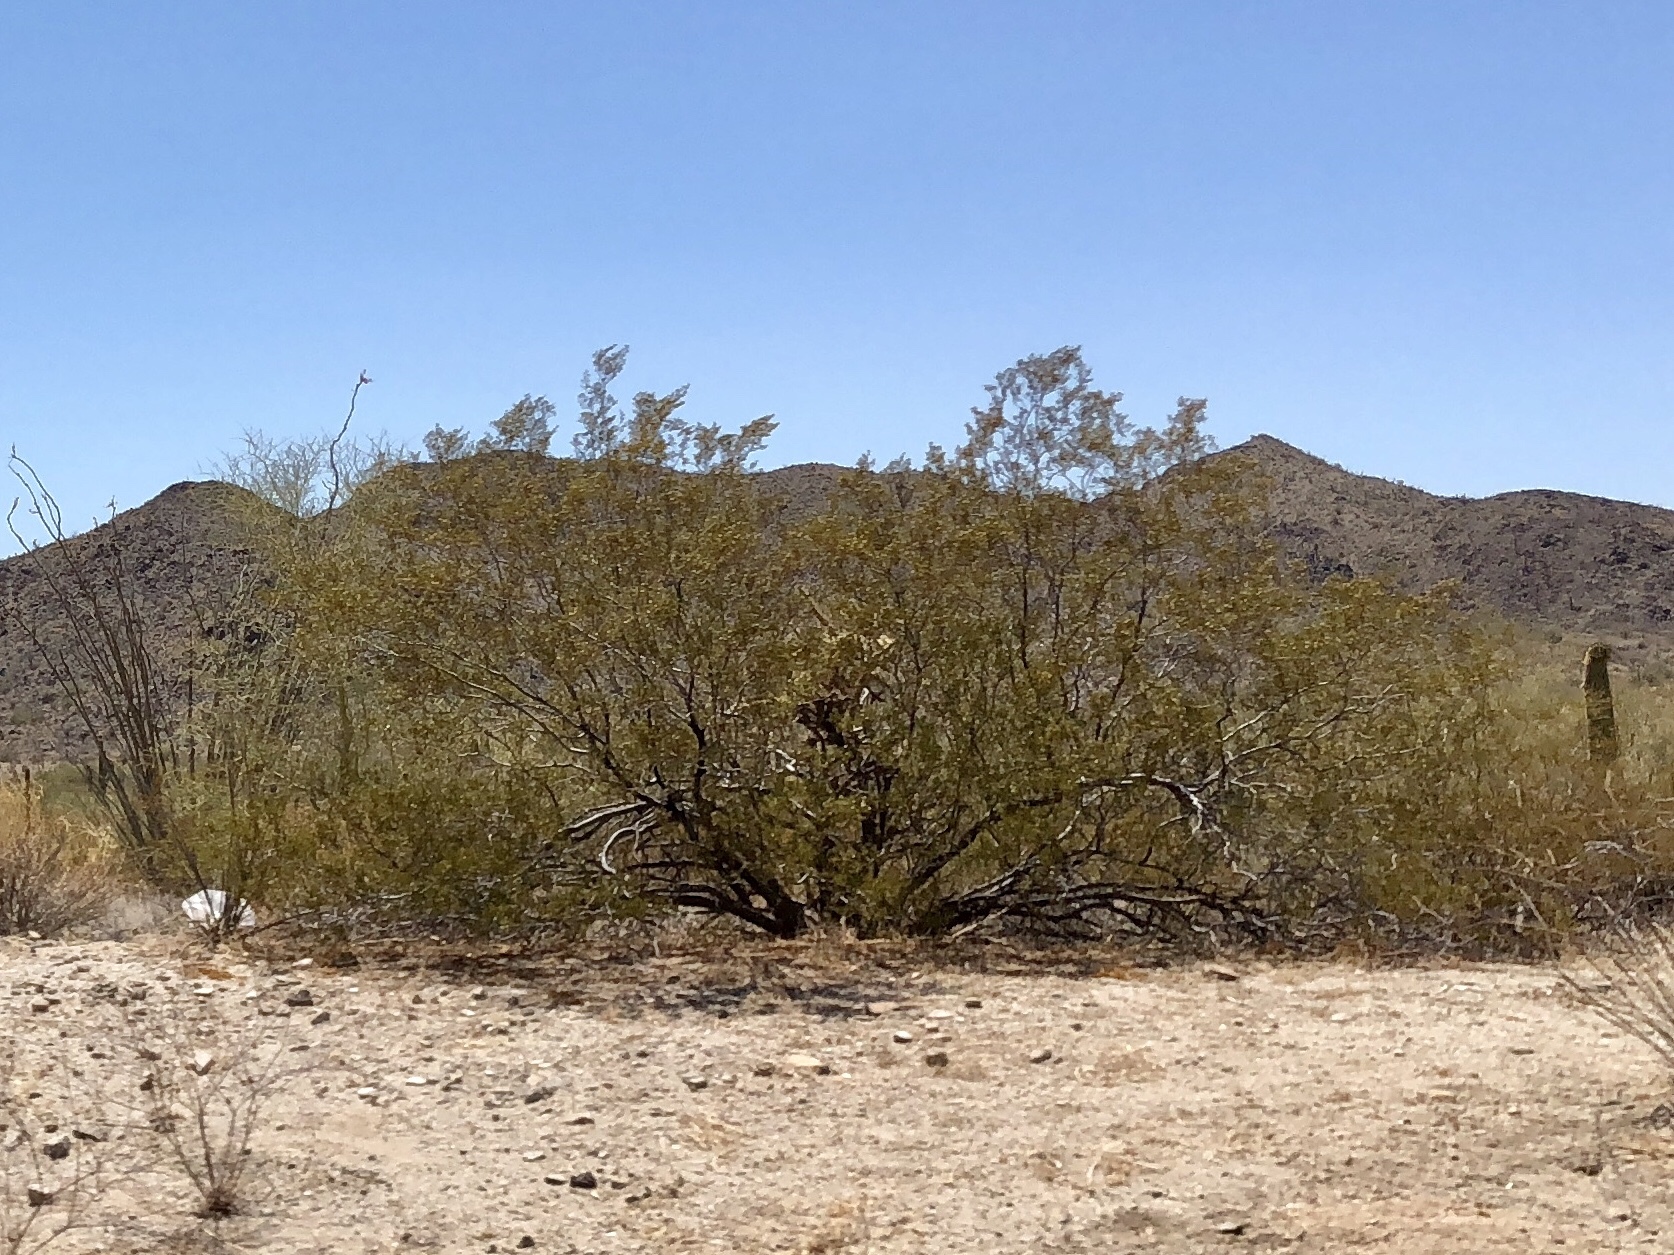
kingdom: Plantae
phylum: Tracheophyta
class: Magnoliopsida
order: Zygophyllales
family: Zygophyllaceae
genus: Larrea
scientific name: Larrea tridentata
